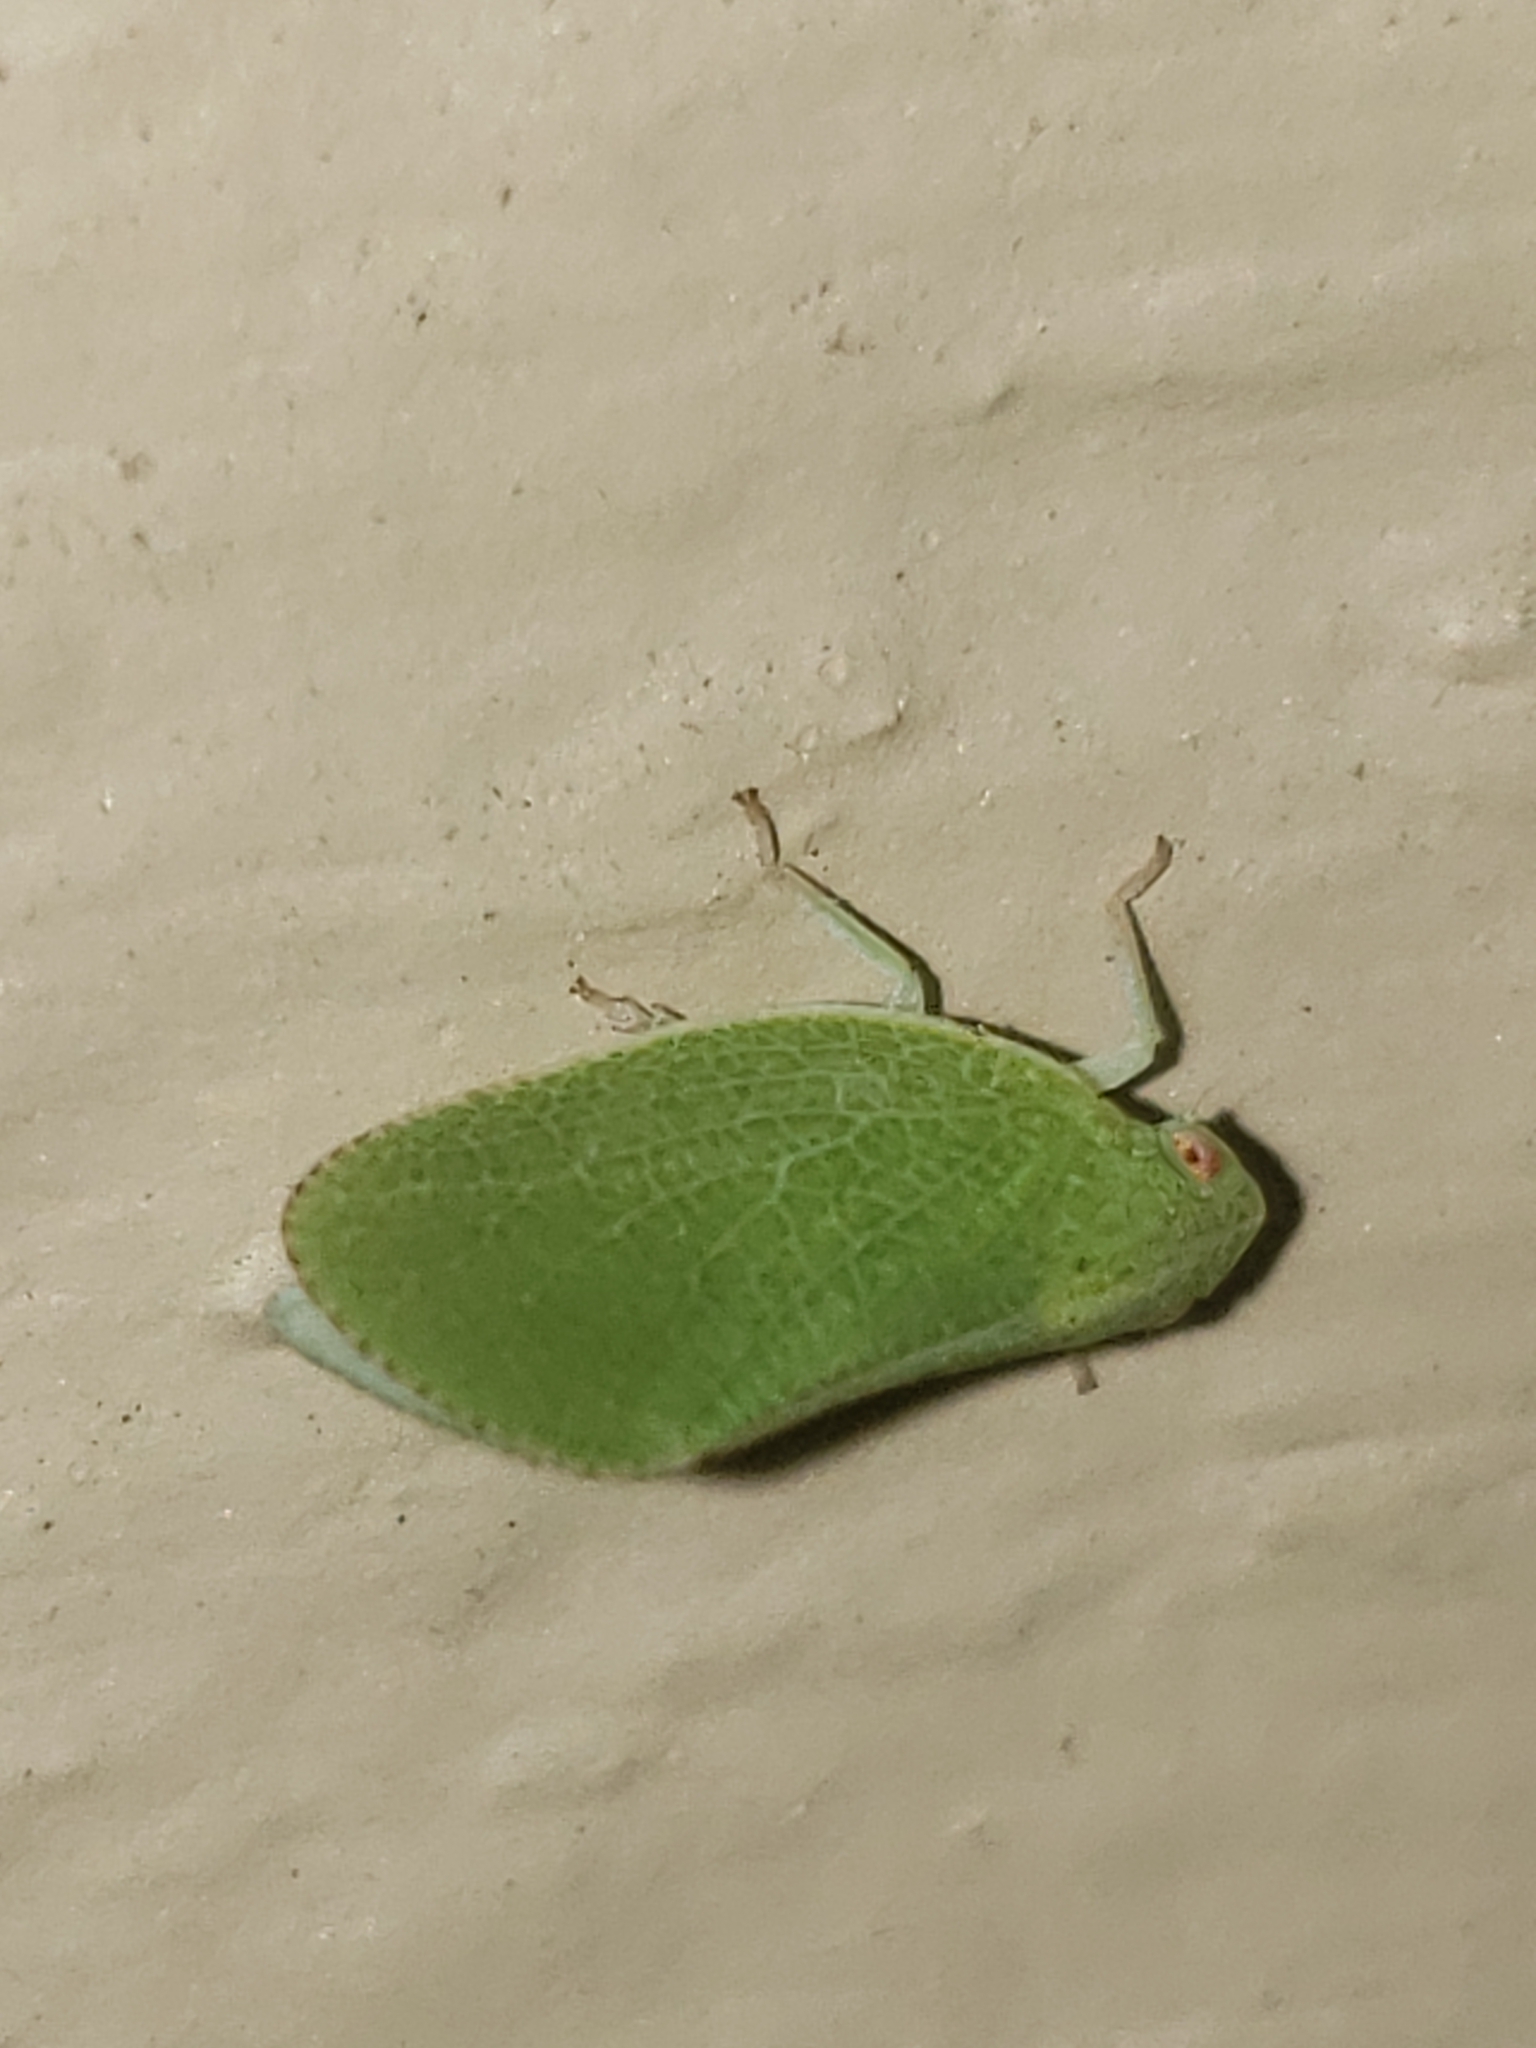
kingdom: Animalia
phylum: Arthropoda
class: Insecta
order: Hemiptera
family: Acanaloniidae
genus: Acanalonia
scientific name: Acanalonia conica
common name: Green cone-headed planthopper
